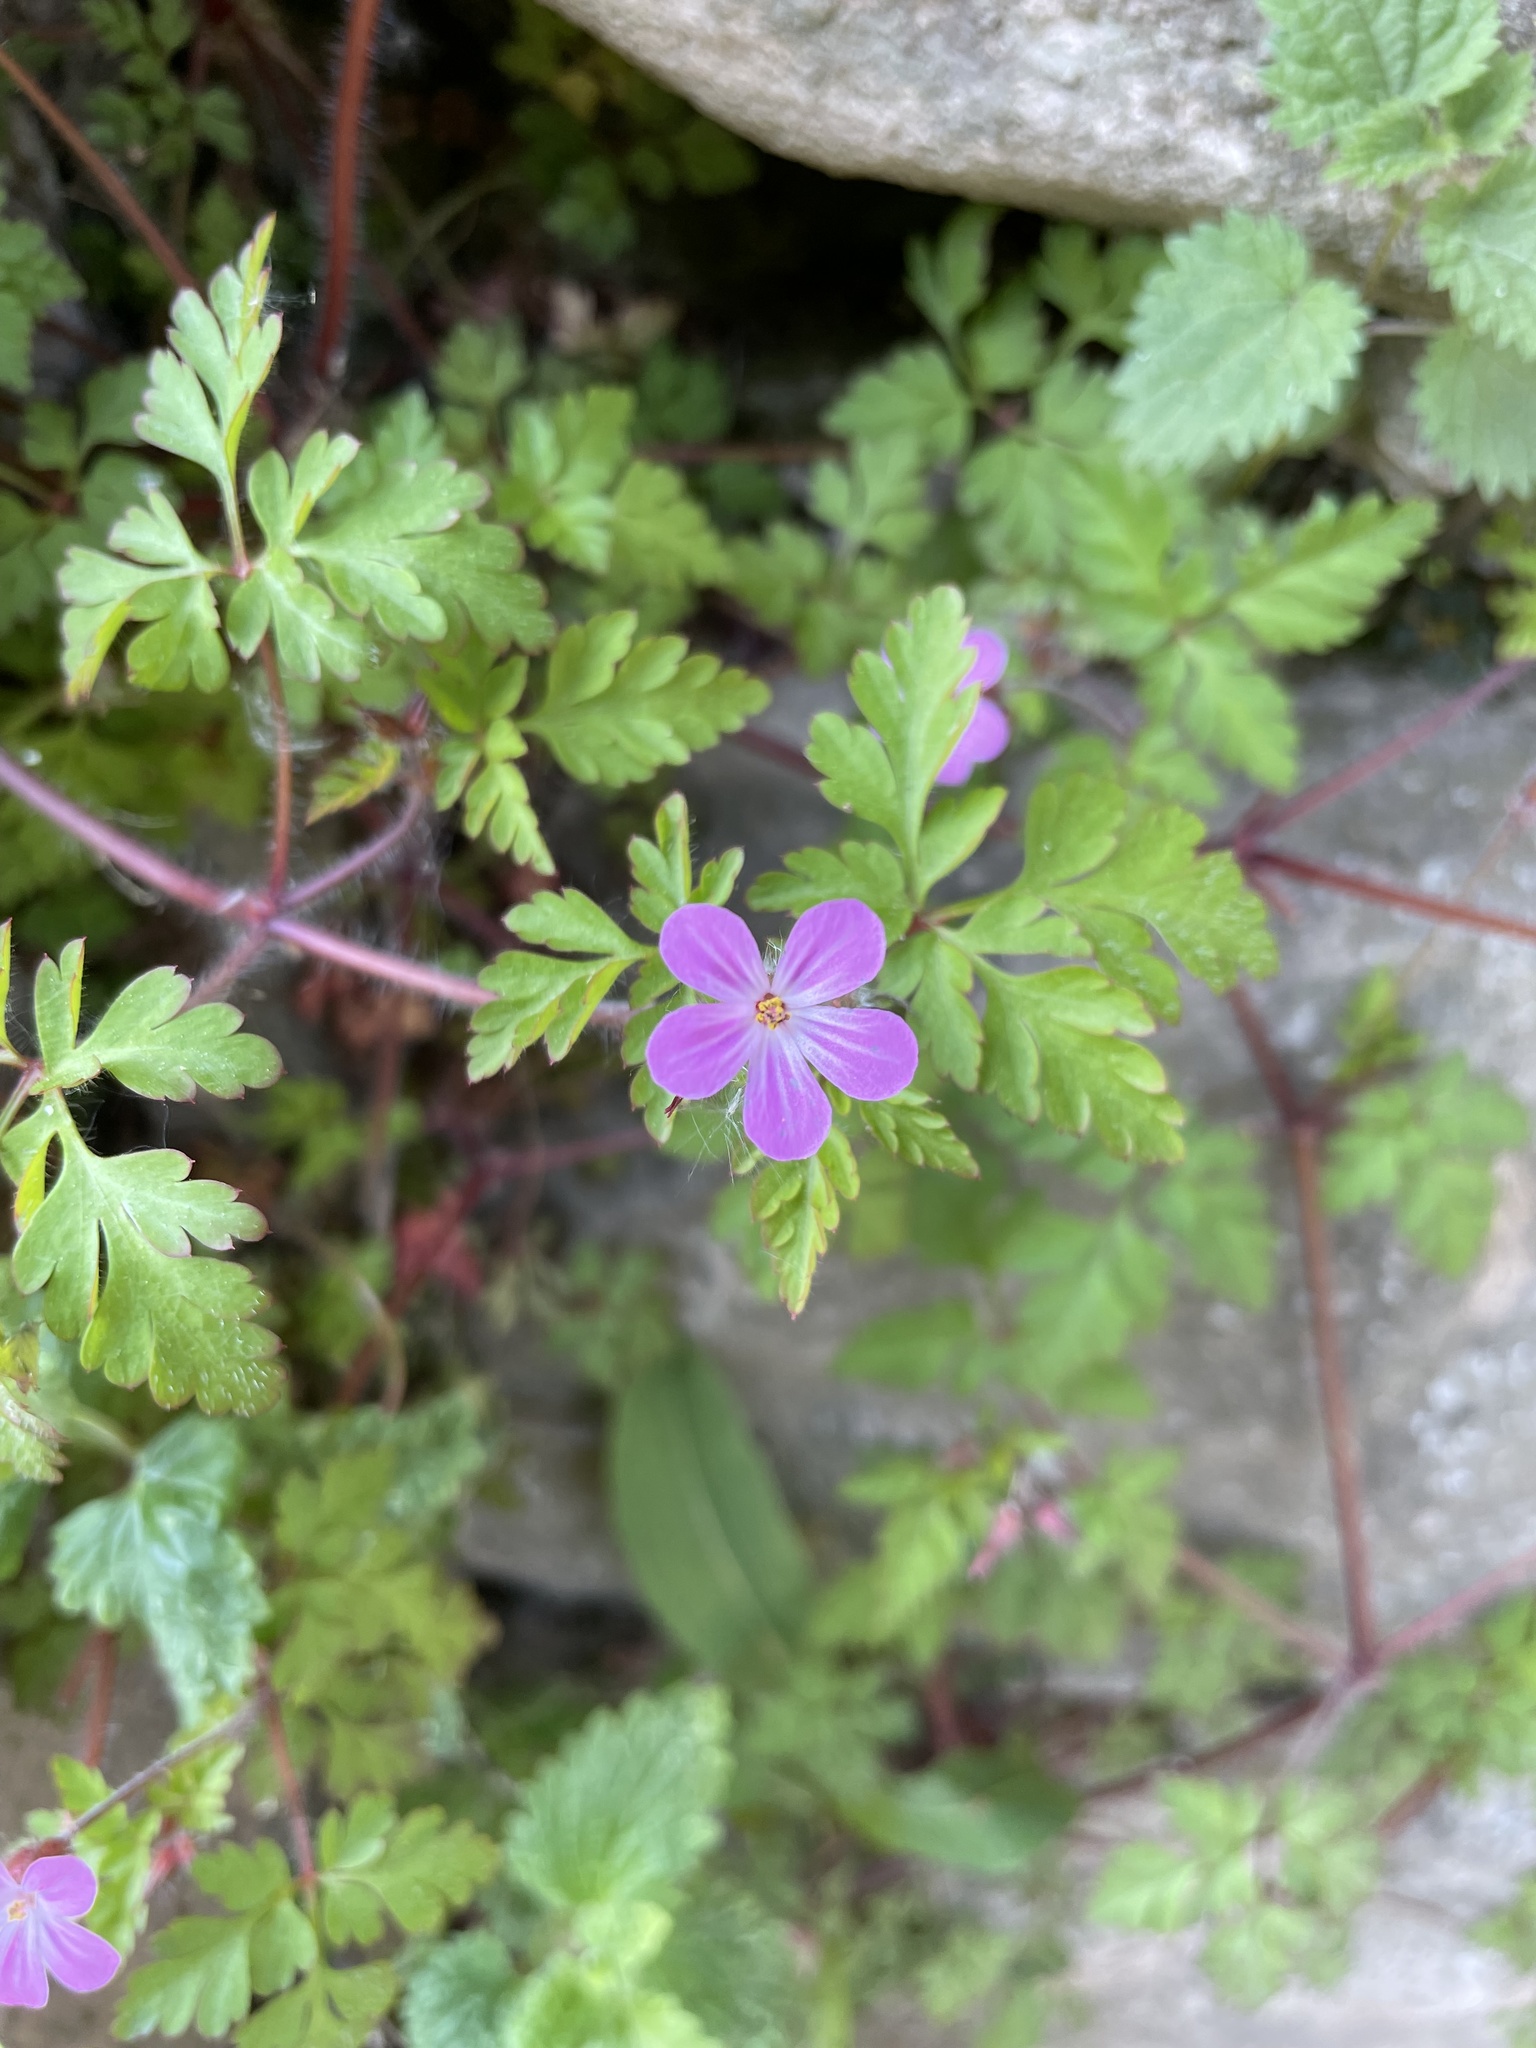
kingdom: Plantae
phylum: Tracheophyta
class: Magnoliopsida
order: Geraniales
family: Geraniaceae
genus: Geranium
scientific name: Geranium robertianum
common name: Herb-robert
